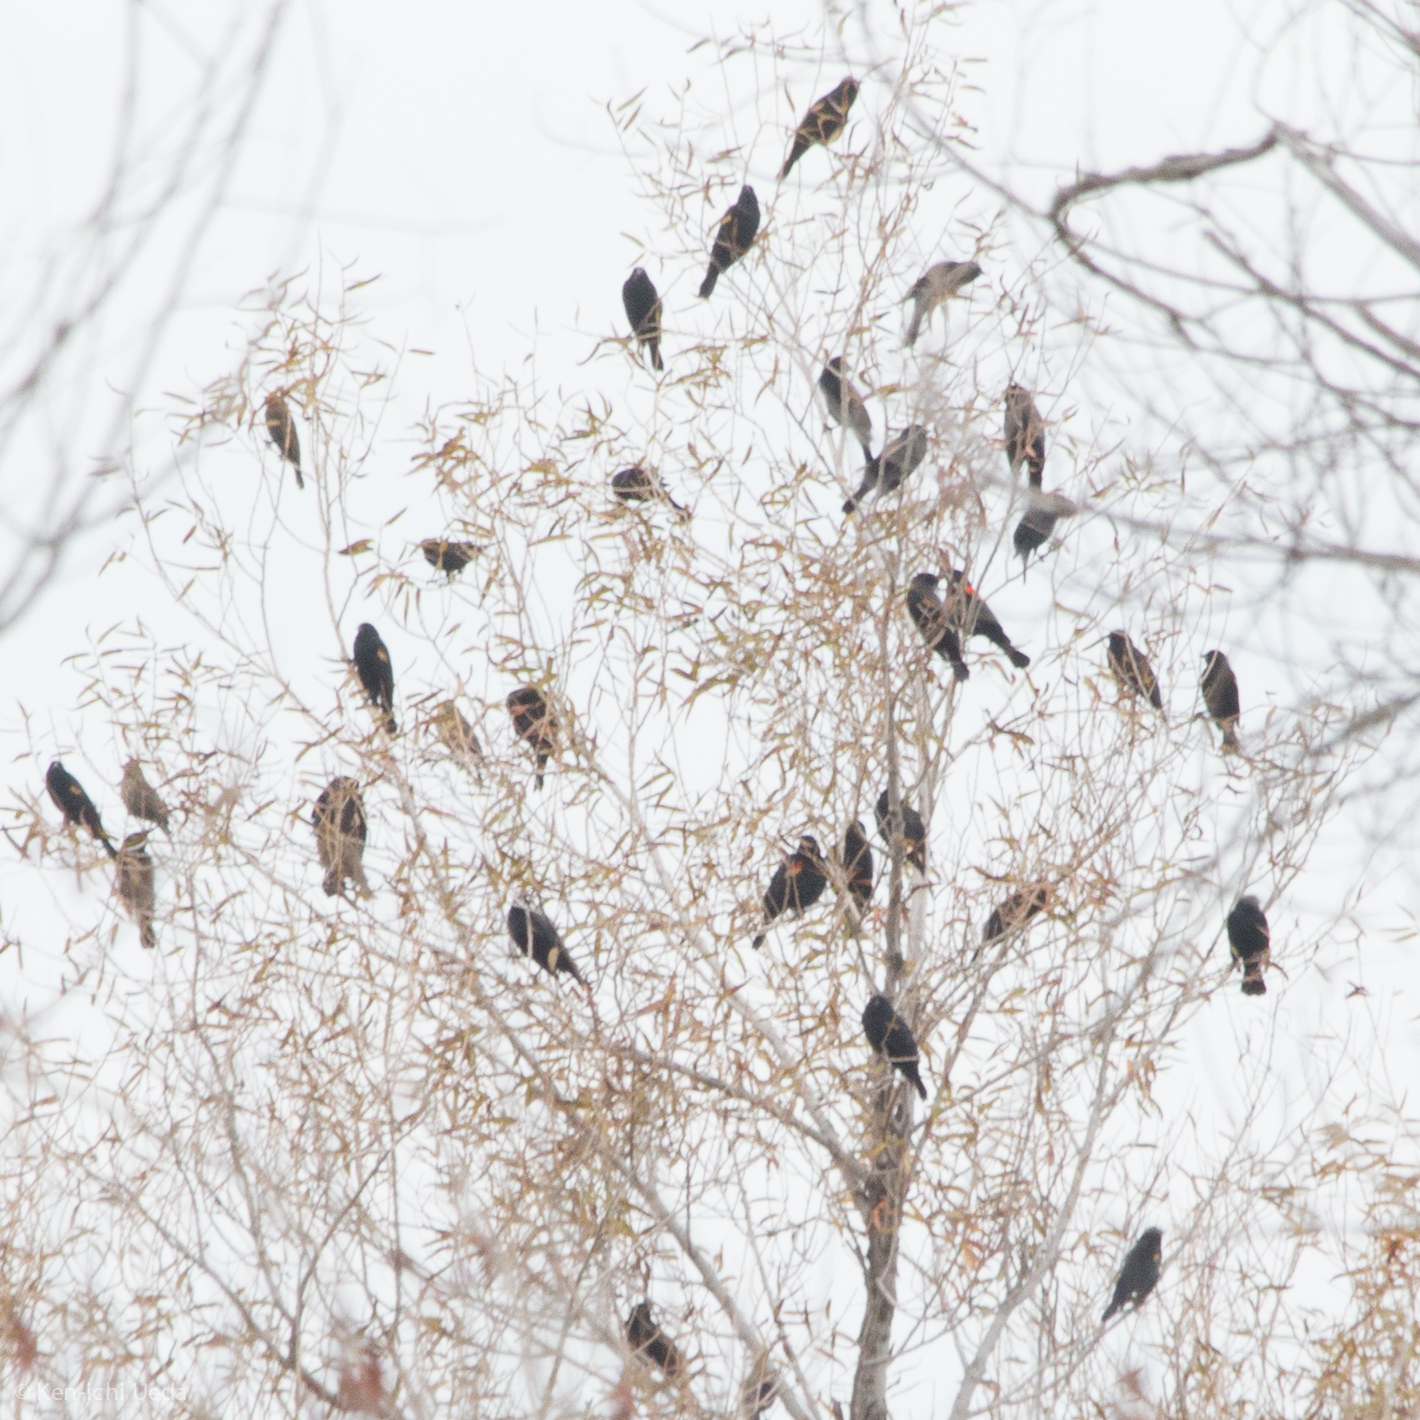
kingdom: Animalia
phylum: Chordata
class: Aves
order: Passeriformes
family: Icteridae
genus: Agelaius
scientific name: Agelaius phoeniceus
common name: Red-winged blackbird
